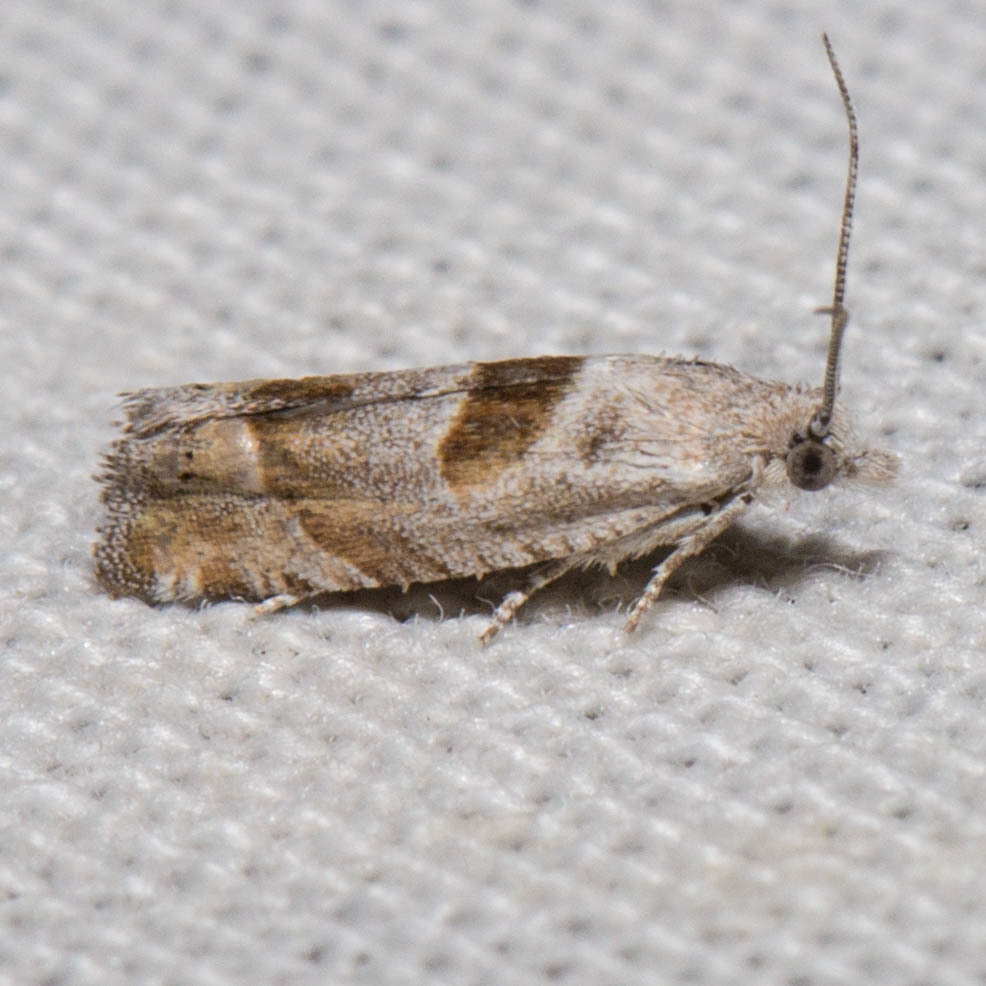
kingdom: Animalia
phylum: Arthropoda
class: Insecta
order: Lepidoptera
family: Tortricidae
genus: Eucosma
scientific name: Eucosma apacheana
